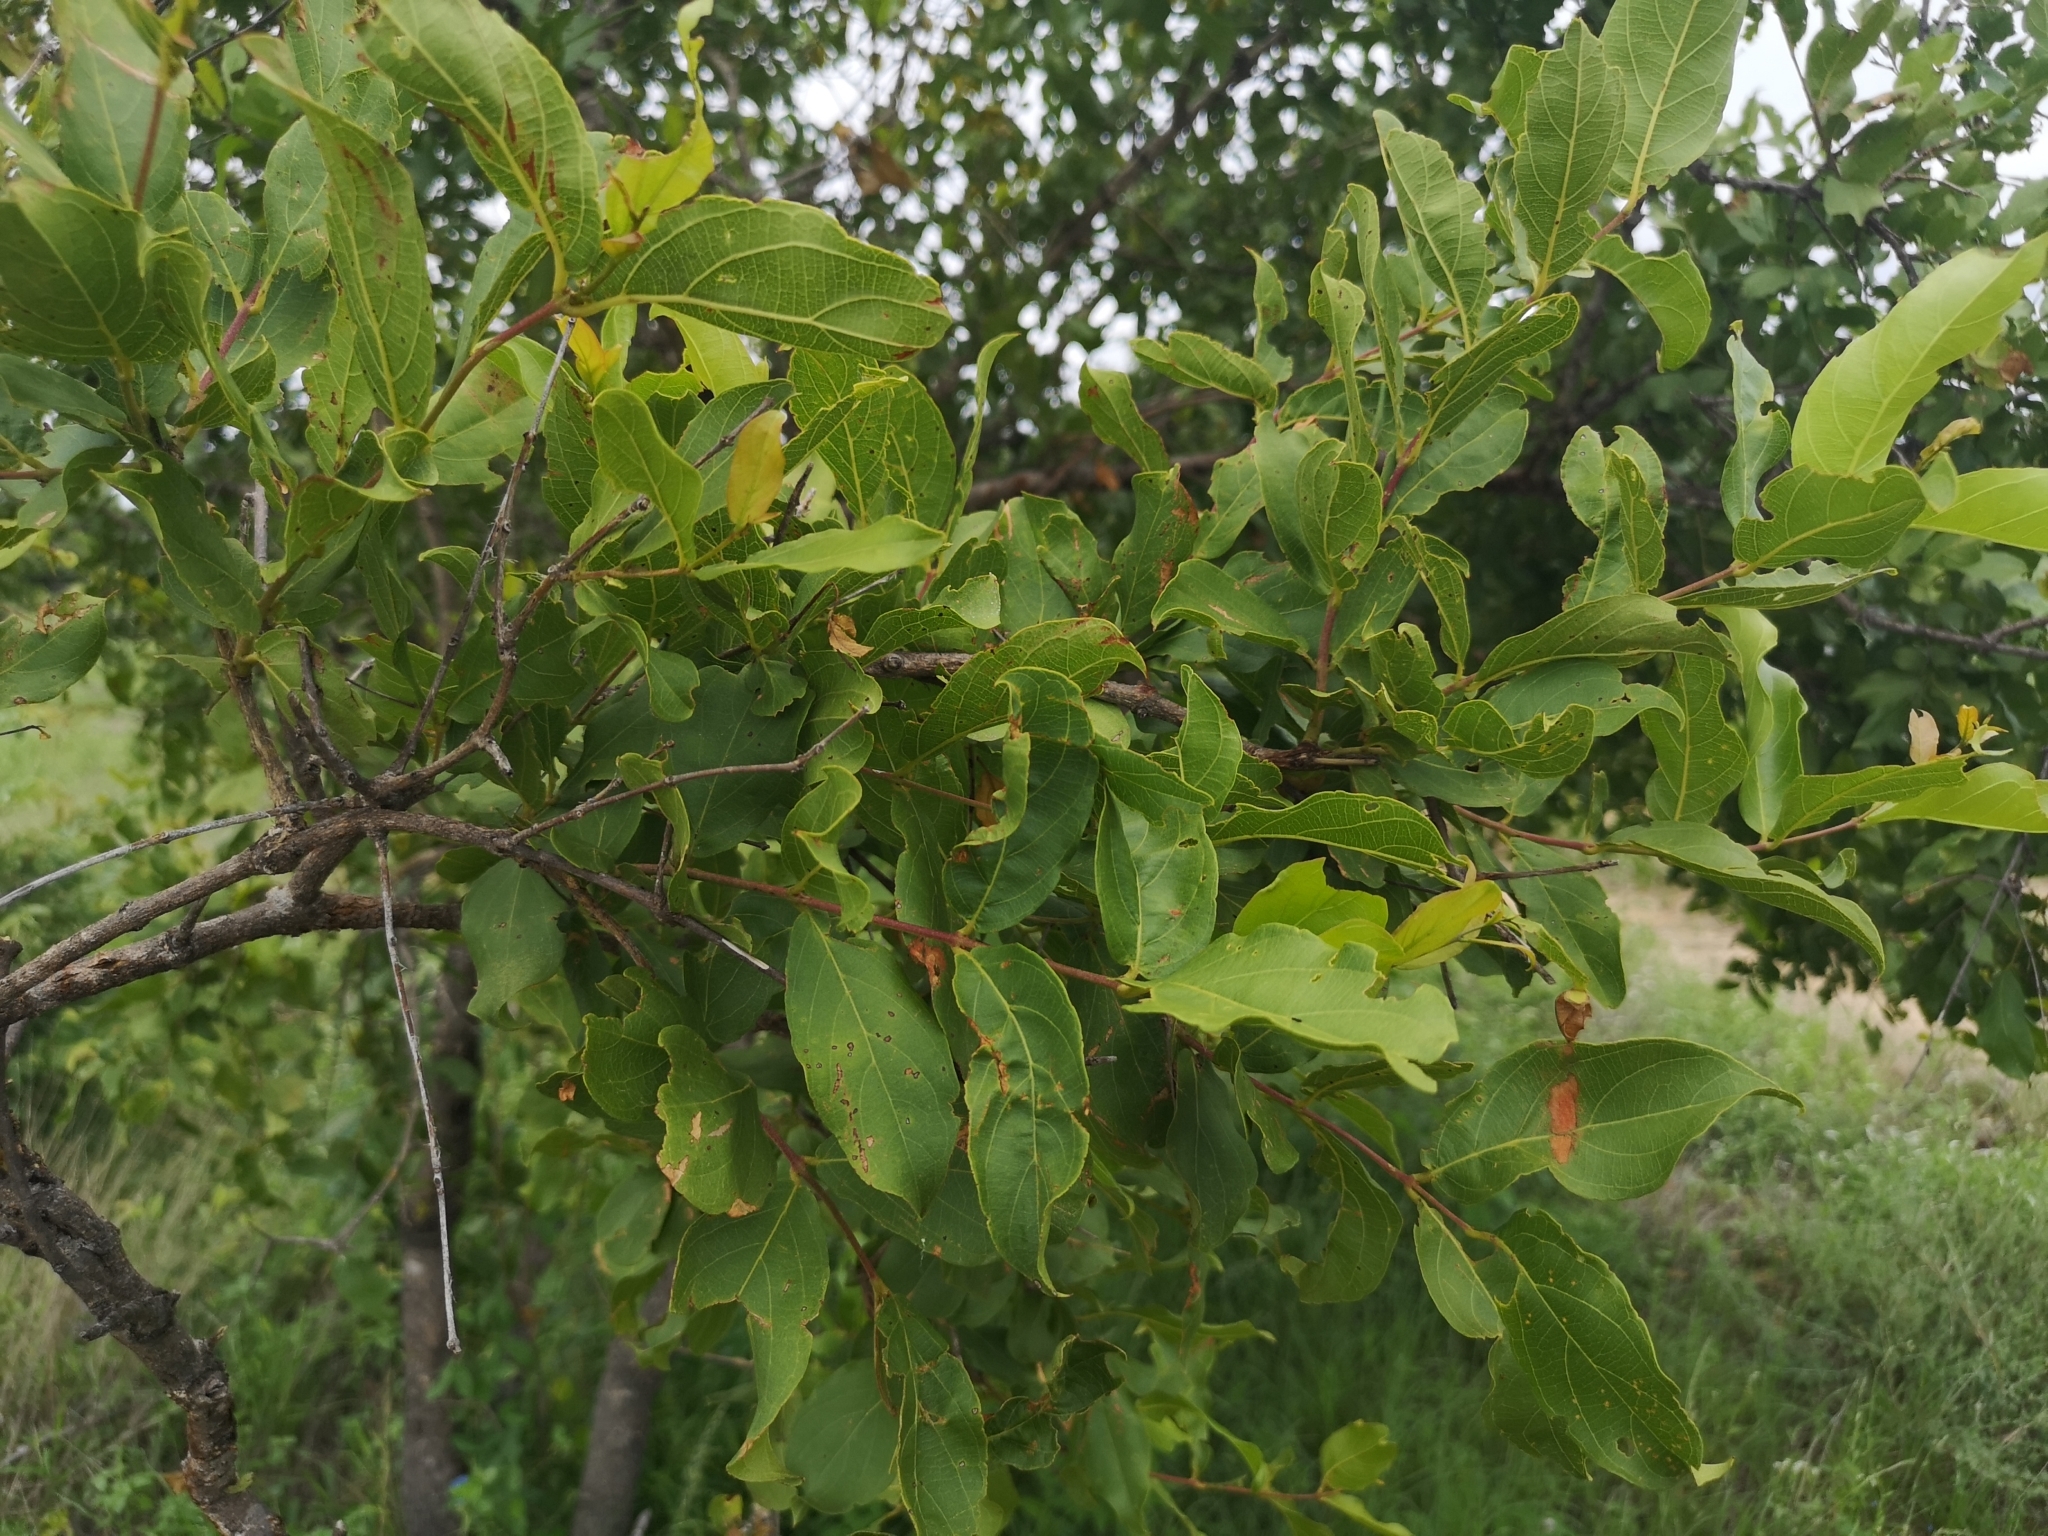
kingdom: Plantae
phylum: Tracheophyta
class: Magnoliopsida
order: Myrtales
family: Combretaceae
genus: Combretum
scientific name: Combretum apiculatum
